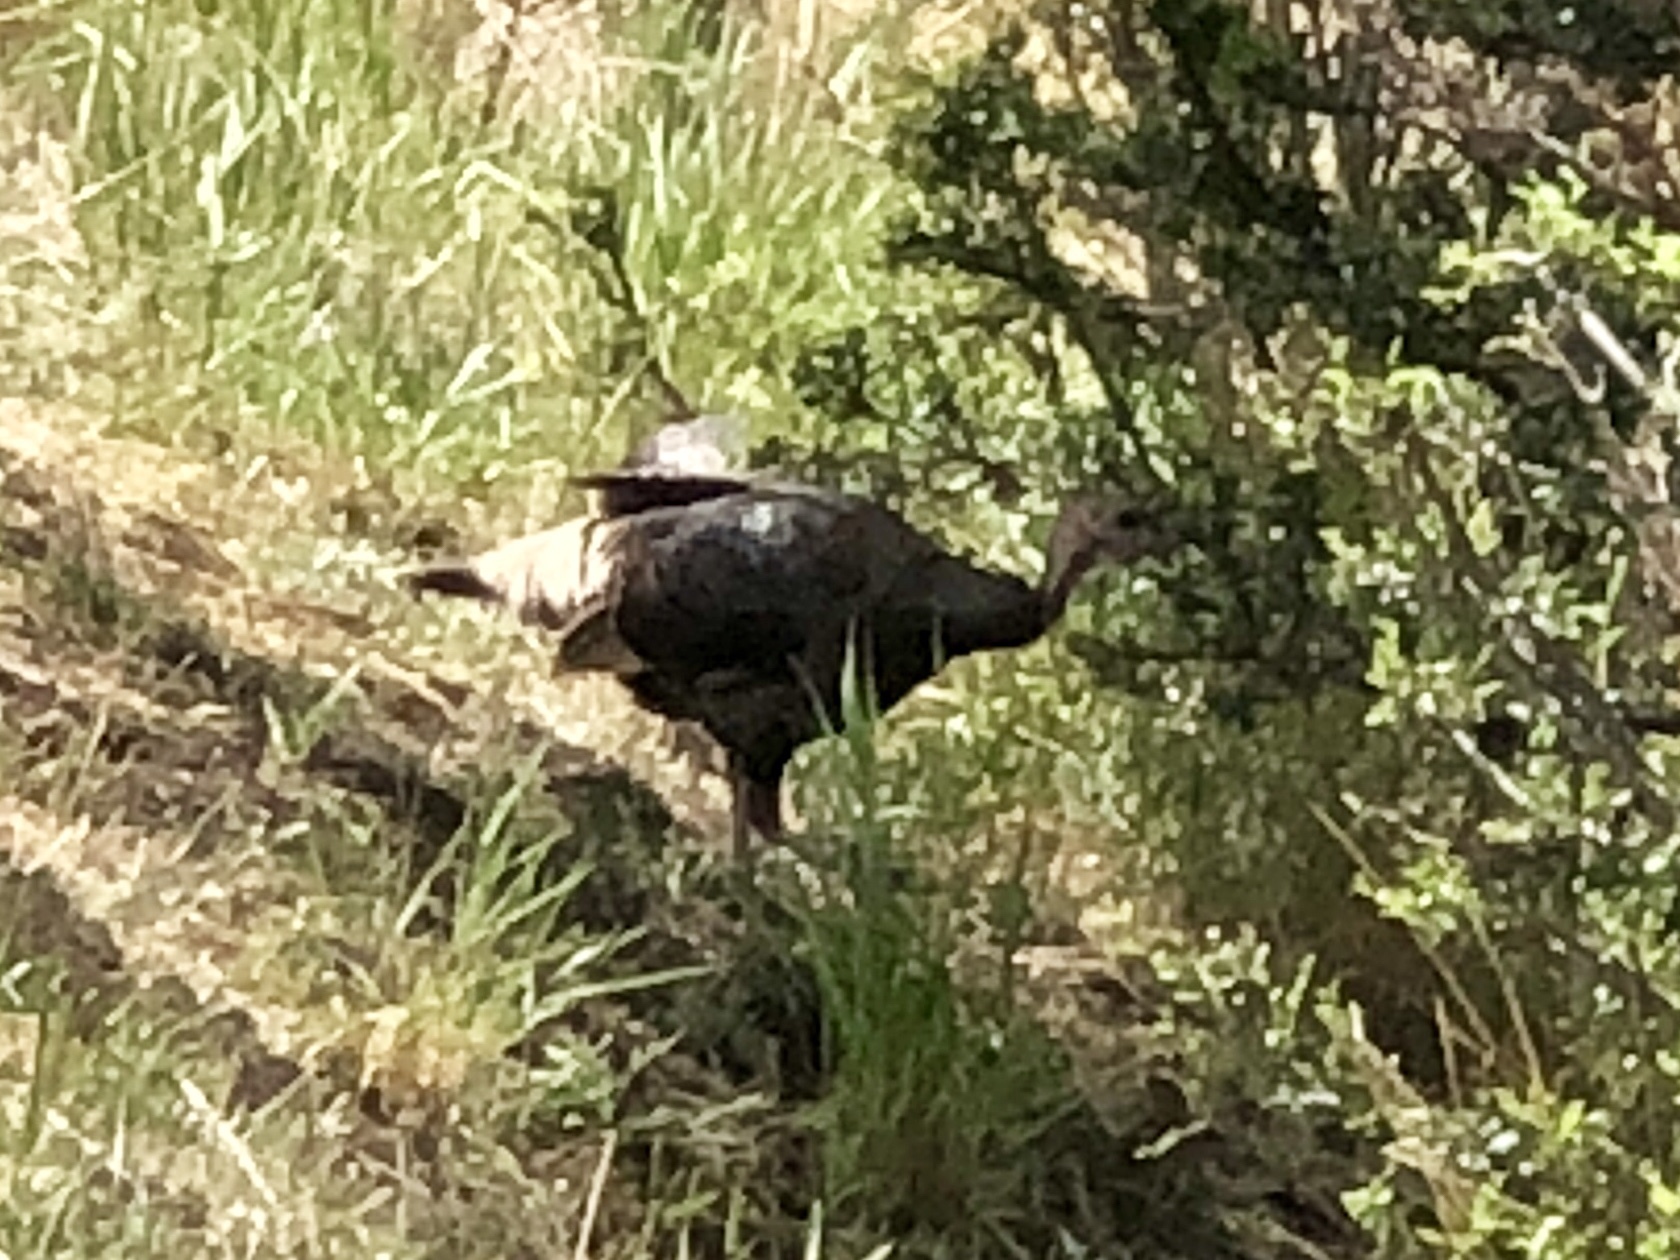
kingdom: Animalia
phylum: Chordata
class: Aves
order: Galliformes
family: Phasianidae
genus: Meleagris
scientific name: Meleagris gallopavo
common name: Wild turkey
